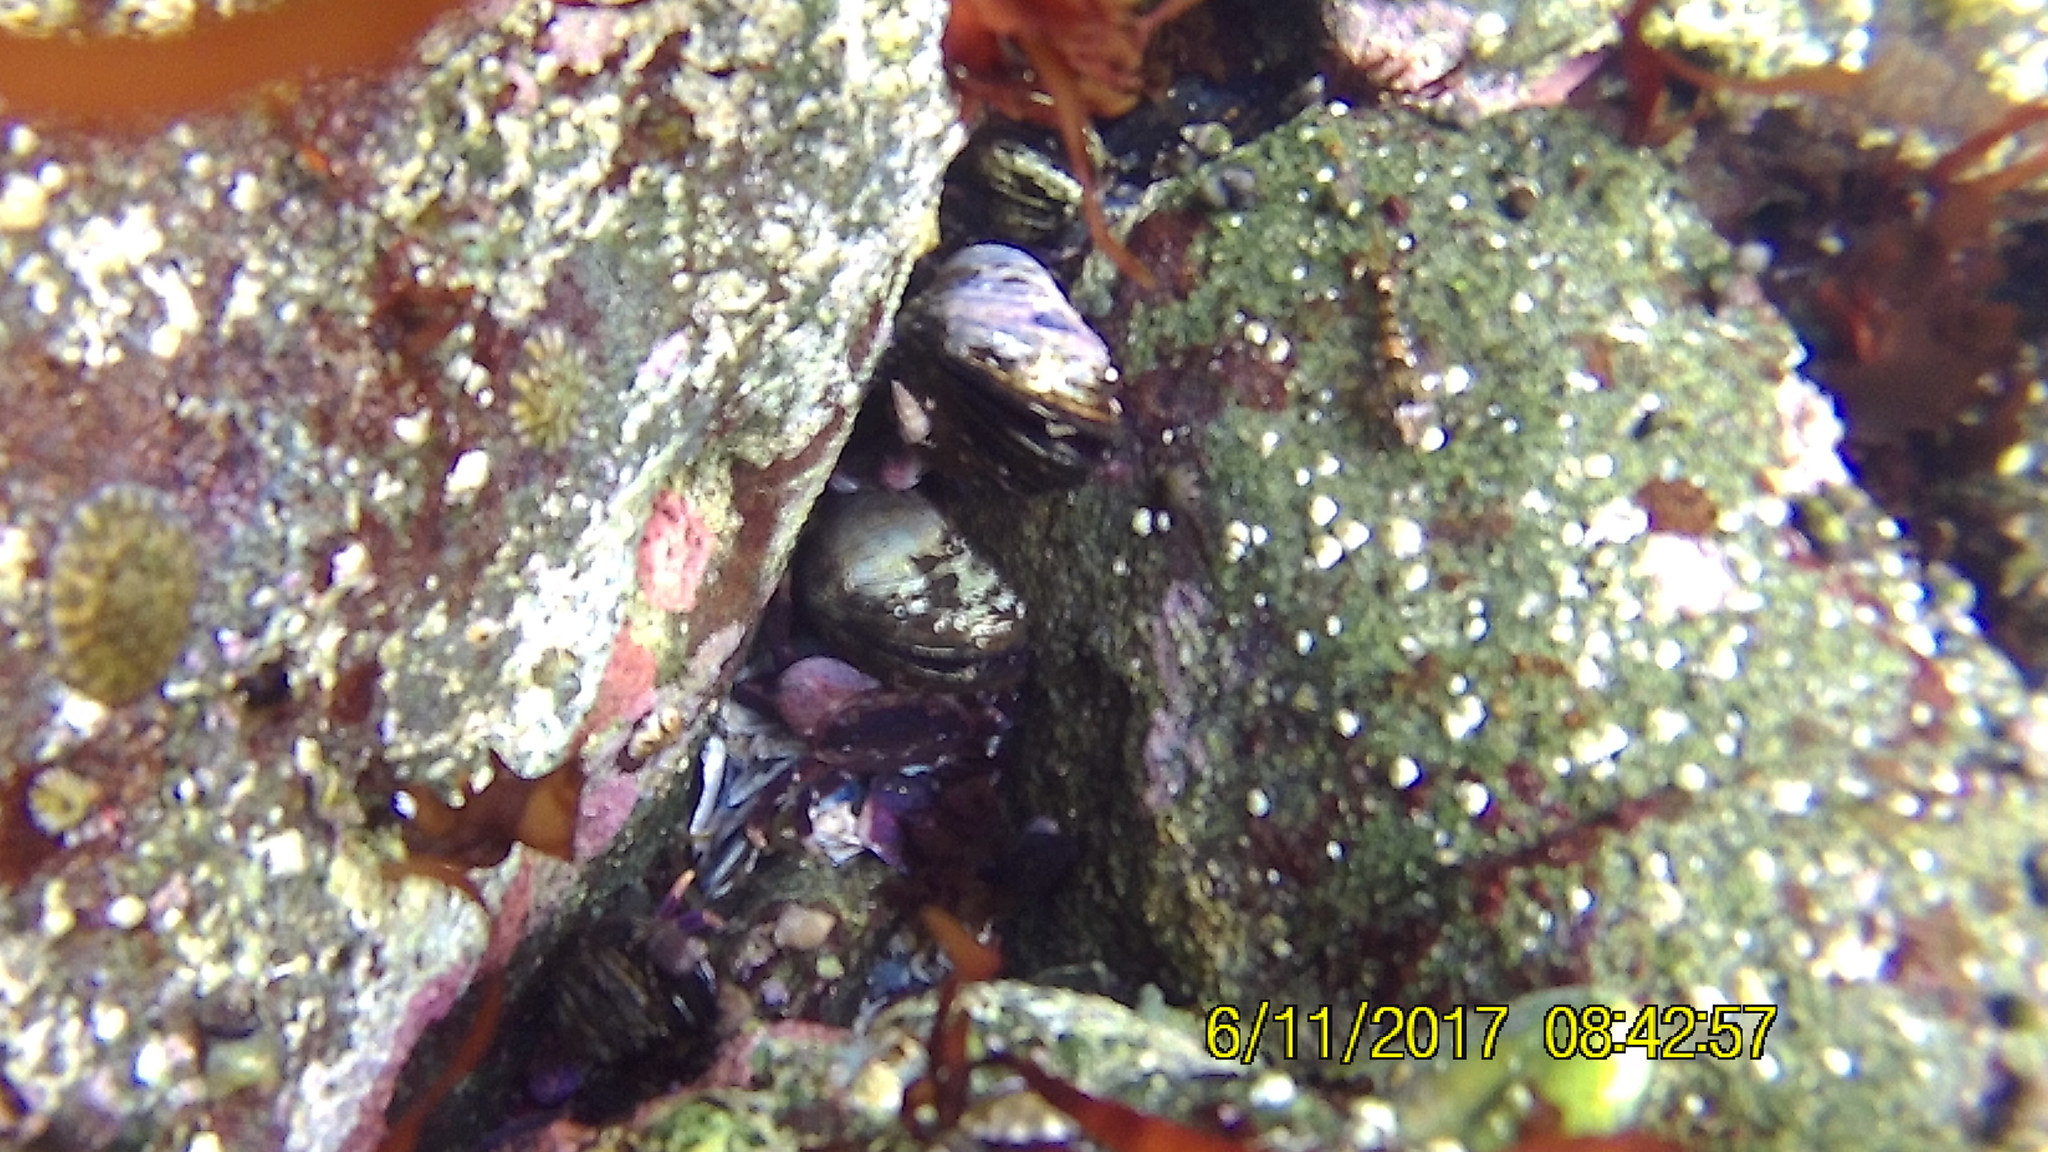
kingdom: Animalia
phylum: Arthropoda
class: Malacostraca
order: Decapoda
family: Varunidae
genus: Hemigrapsus
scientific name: Hemigrapsus nudus
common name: Purple shore crab
